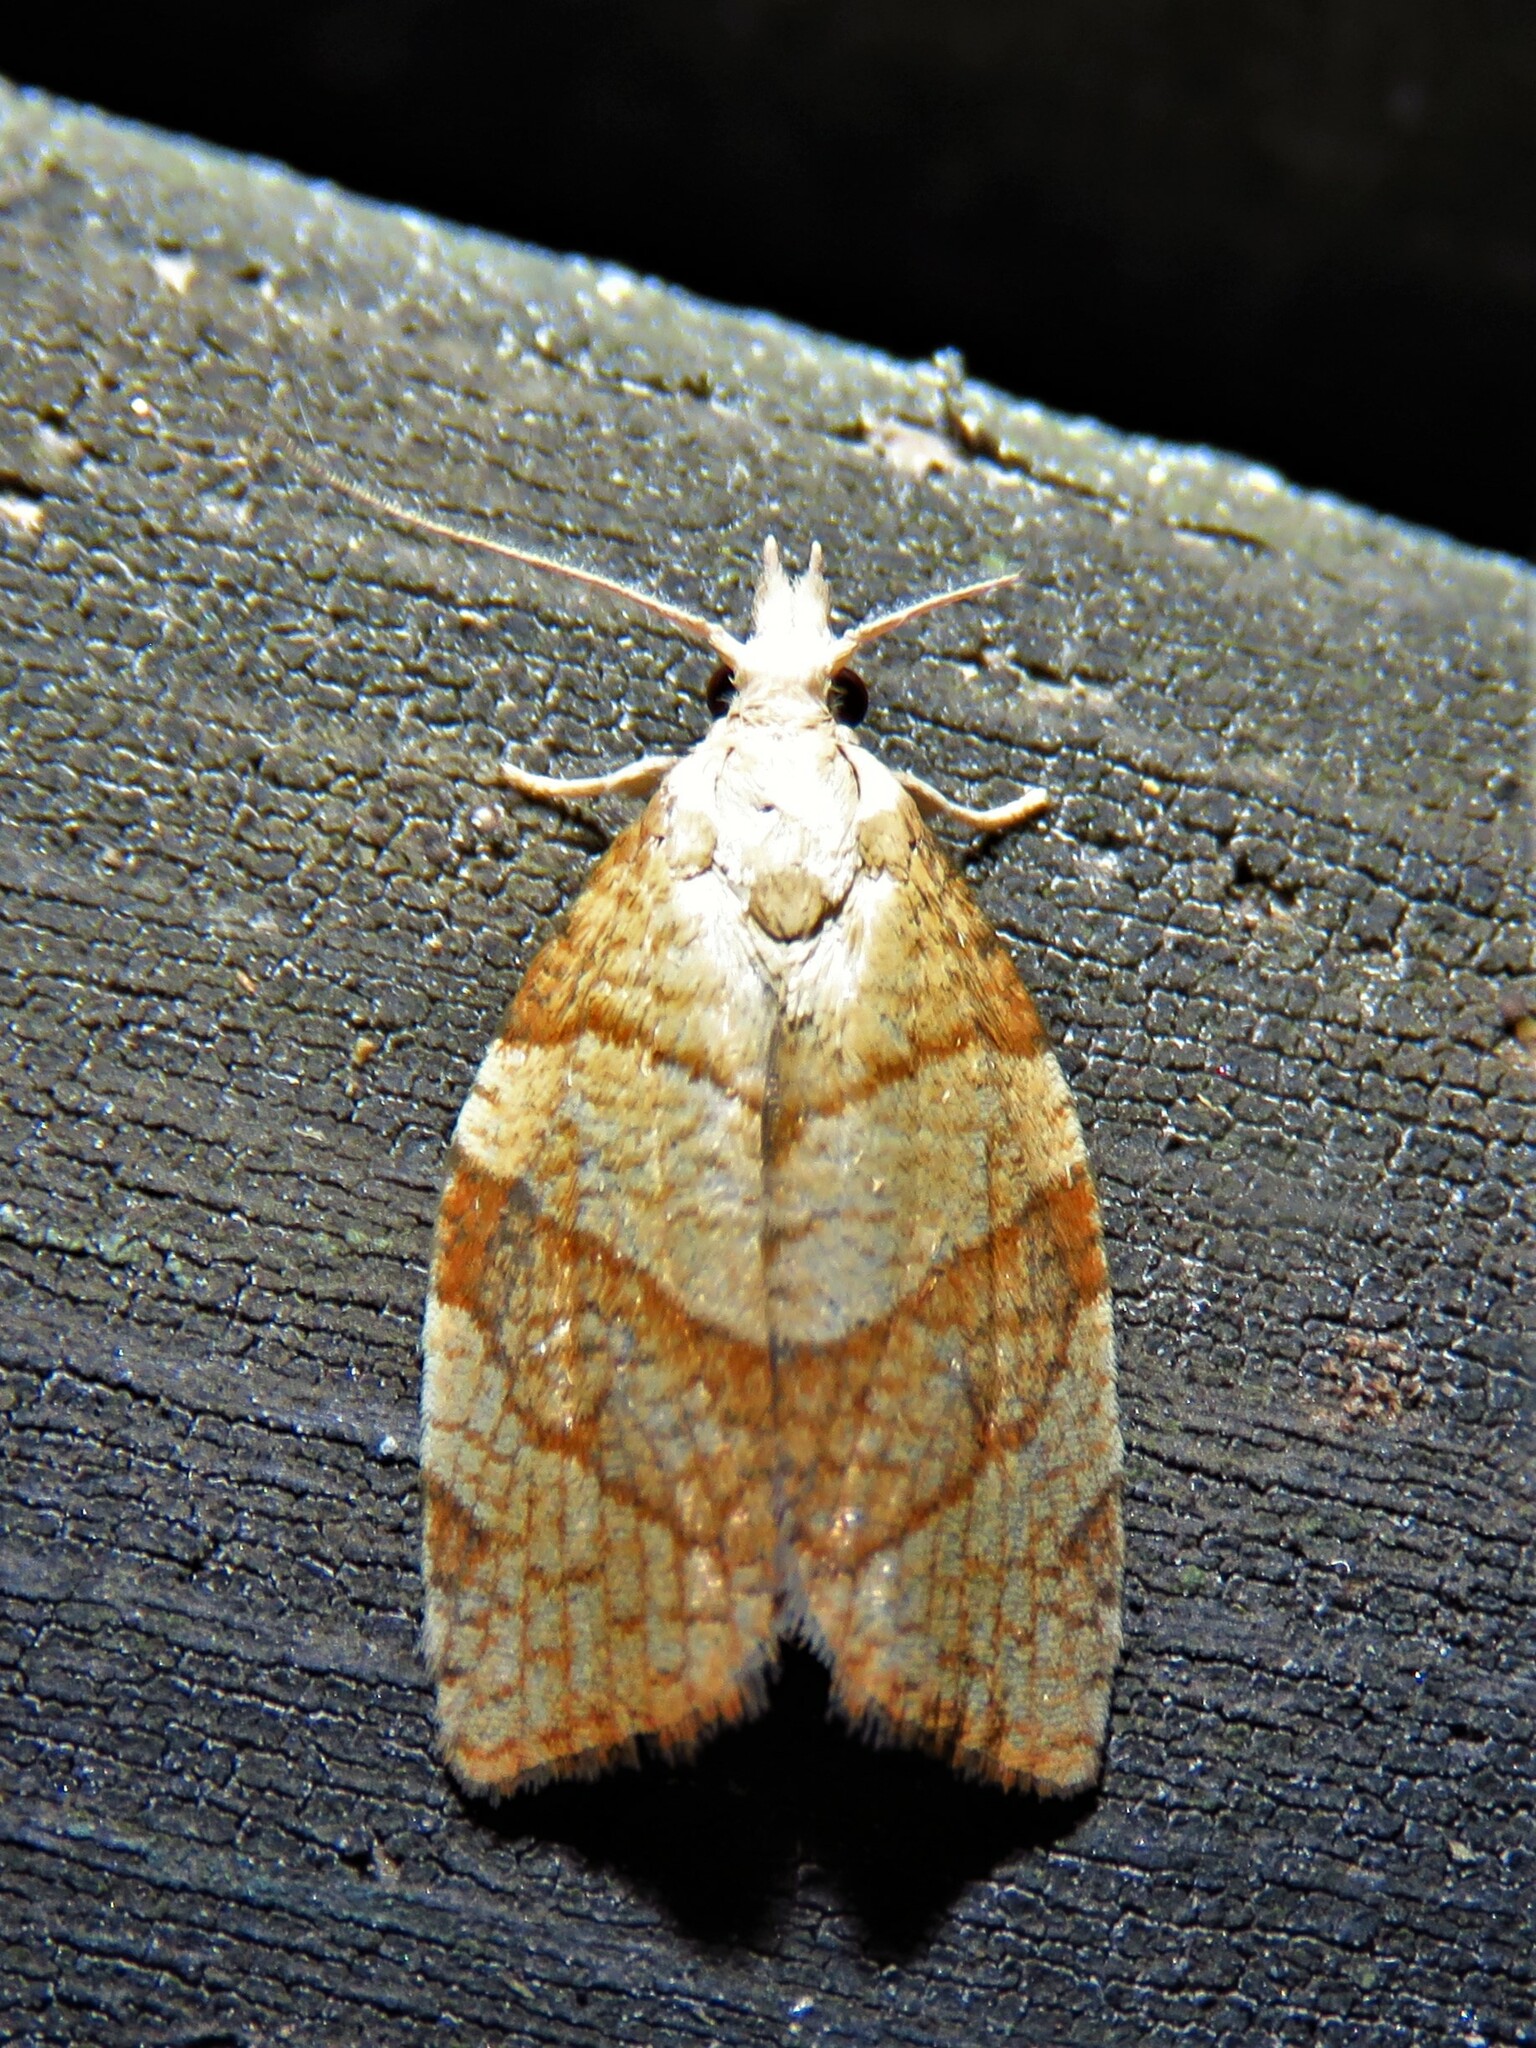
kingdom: Animalia
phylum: Arthropoda
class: Insecta
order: Lepidoptera
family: Tortricidae
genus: Pandemis
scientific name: Pandemis corylana
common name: Chequered fruit-tree tortrix
